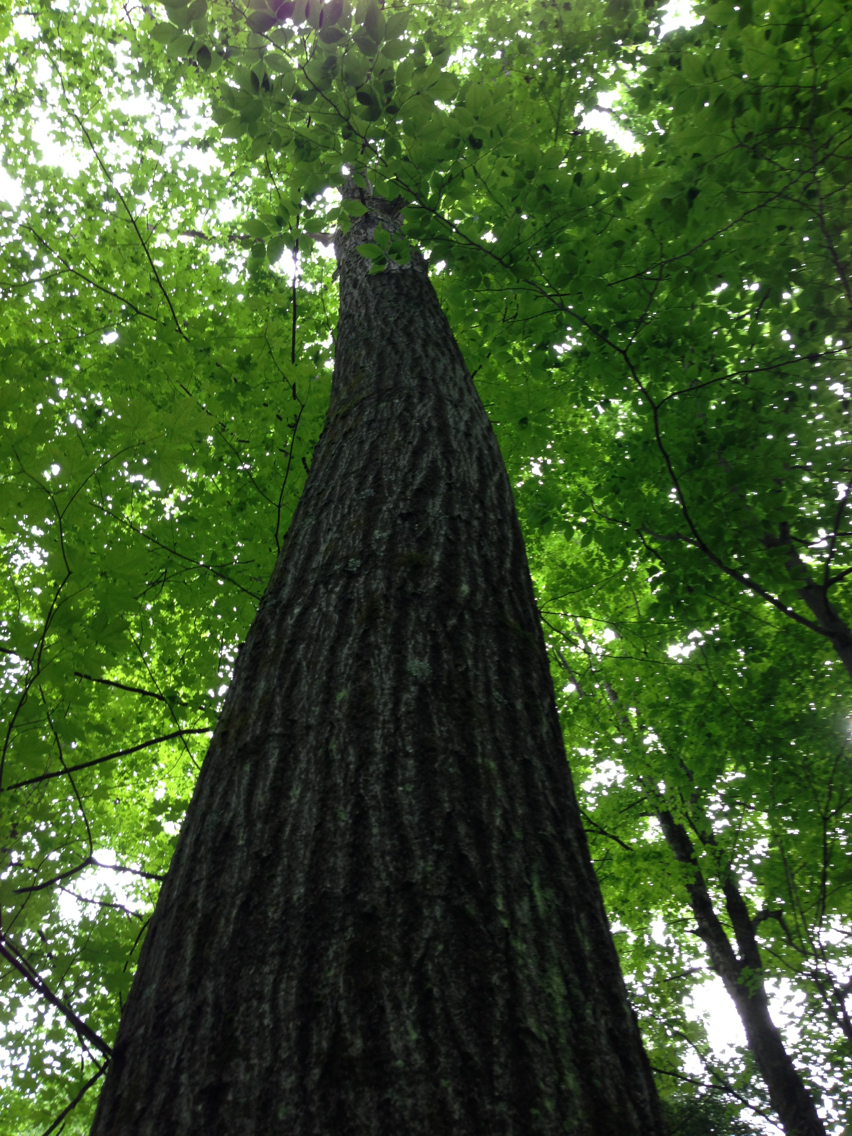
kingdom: Plantae
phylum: Tracheophyta
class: Magnoliopsida
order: Fagales
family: Fagaceae
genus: Quercus
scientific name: Quercus rubra
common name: Red oak
